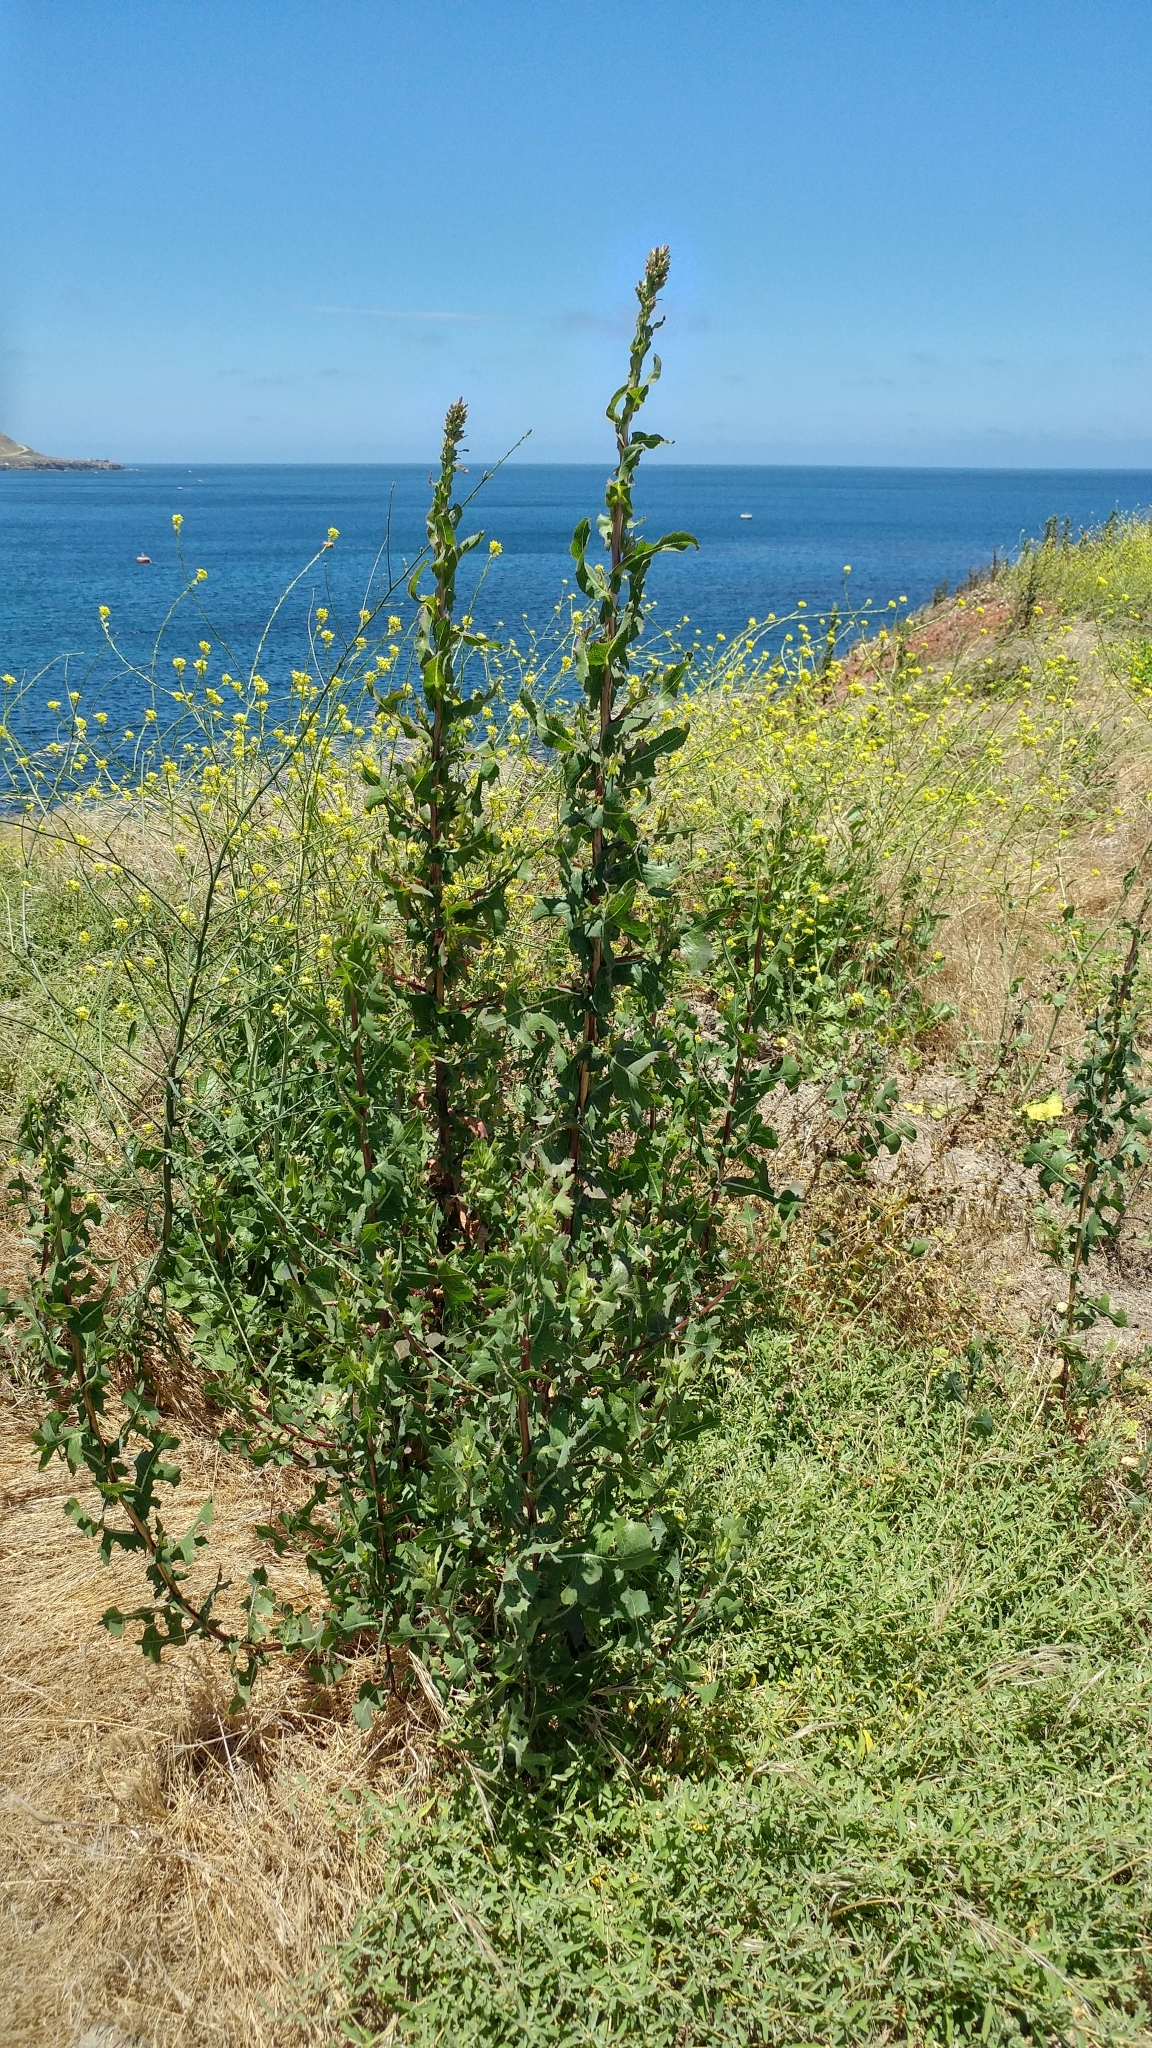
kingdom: Plantae
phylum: Tracheophyta
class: Magnoliopsida
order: Asterales
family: Asteraceae
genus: Lactuca
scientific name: Lactuca serriola
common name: Prickly lettuce
